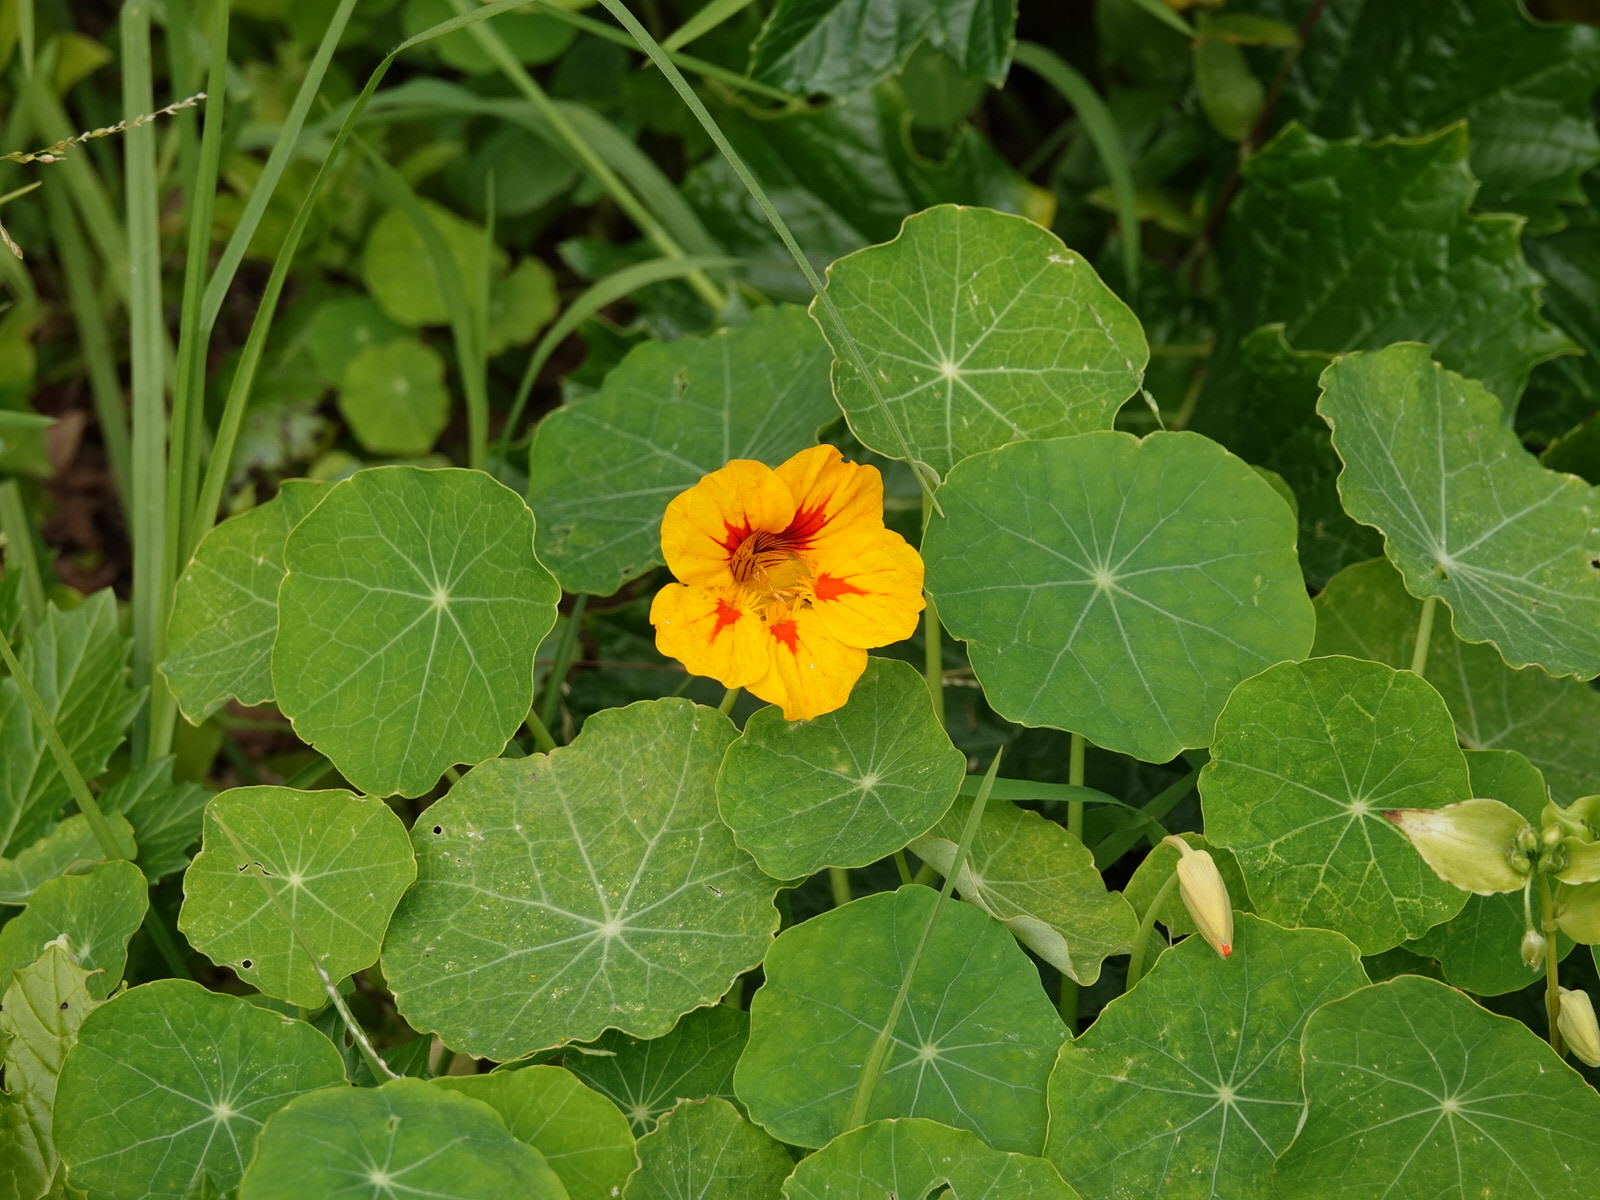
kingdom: Plantae
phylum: Tracheophyta
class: Magnoliopsida
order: Brassicales
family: Tropaeolaceae
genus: Tropaeolum
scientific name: Tropaeolum majus
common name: Nasturtium
